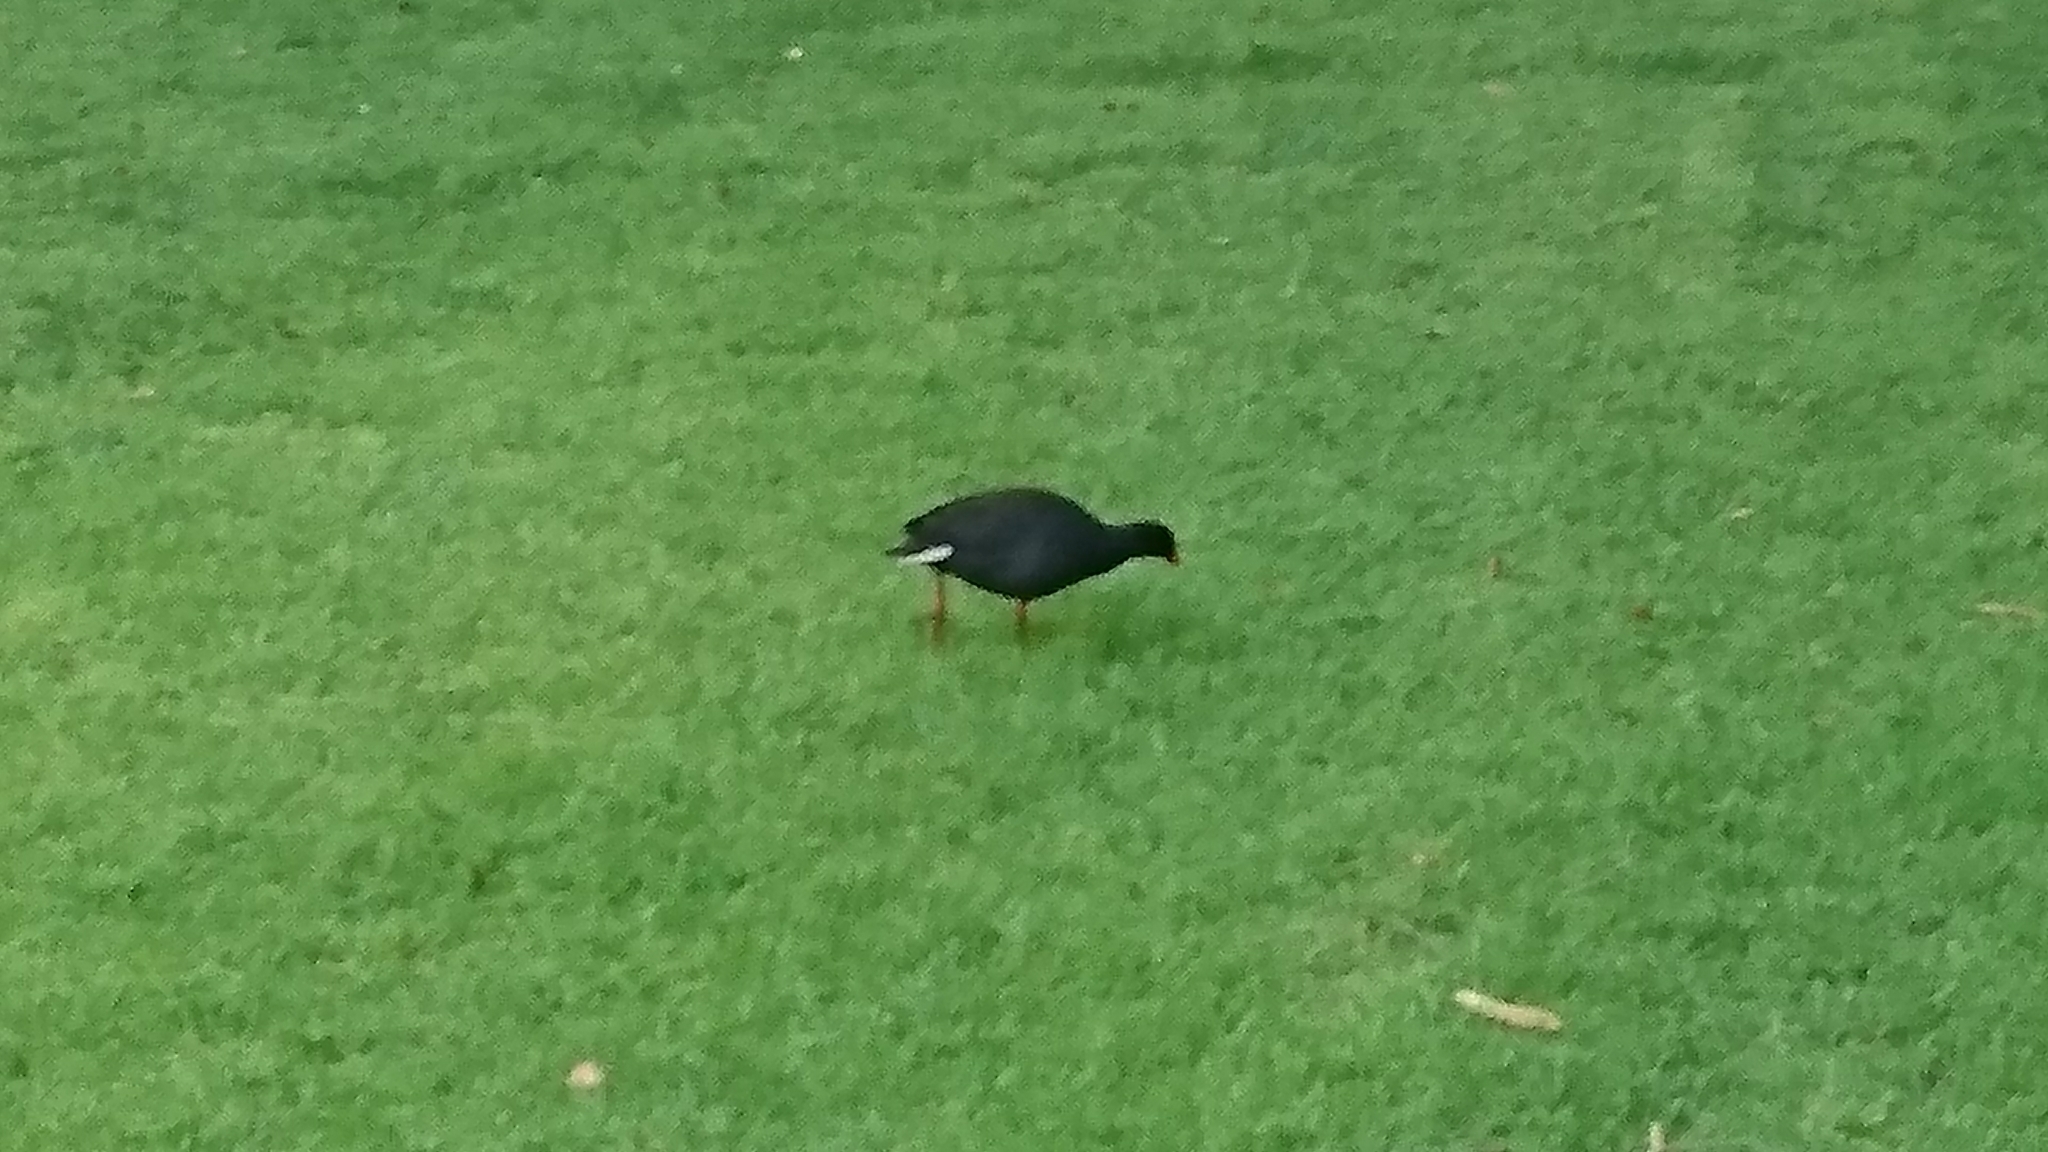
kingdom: Animalia
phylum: Chordata
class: Aves
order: Gruiformes
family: Rallidae
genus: Gallinula
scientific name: Gallinula tenebrosa
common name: Dusky moorhen
